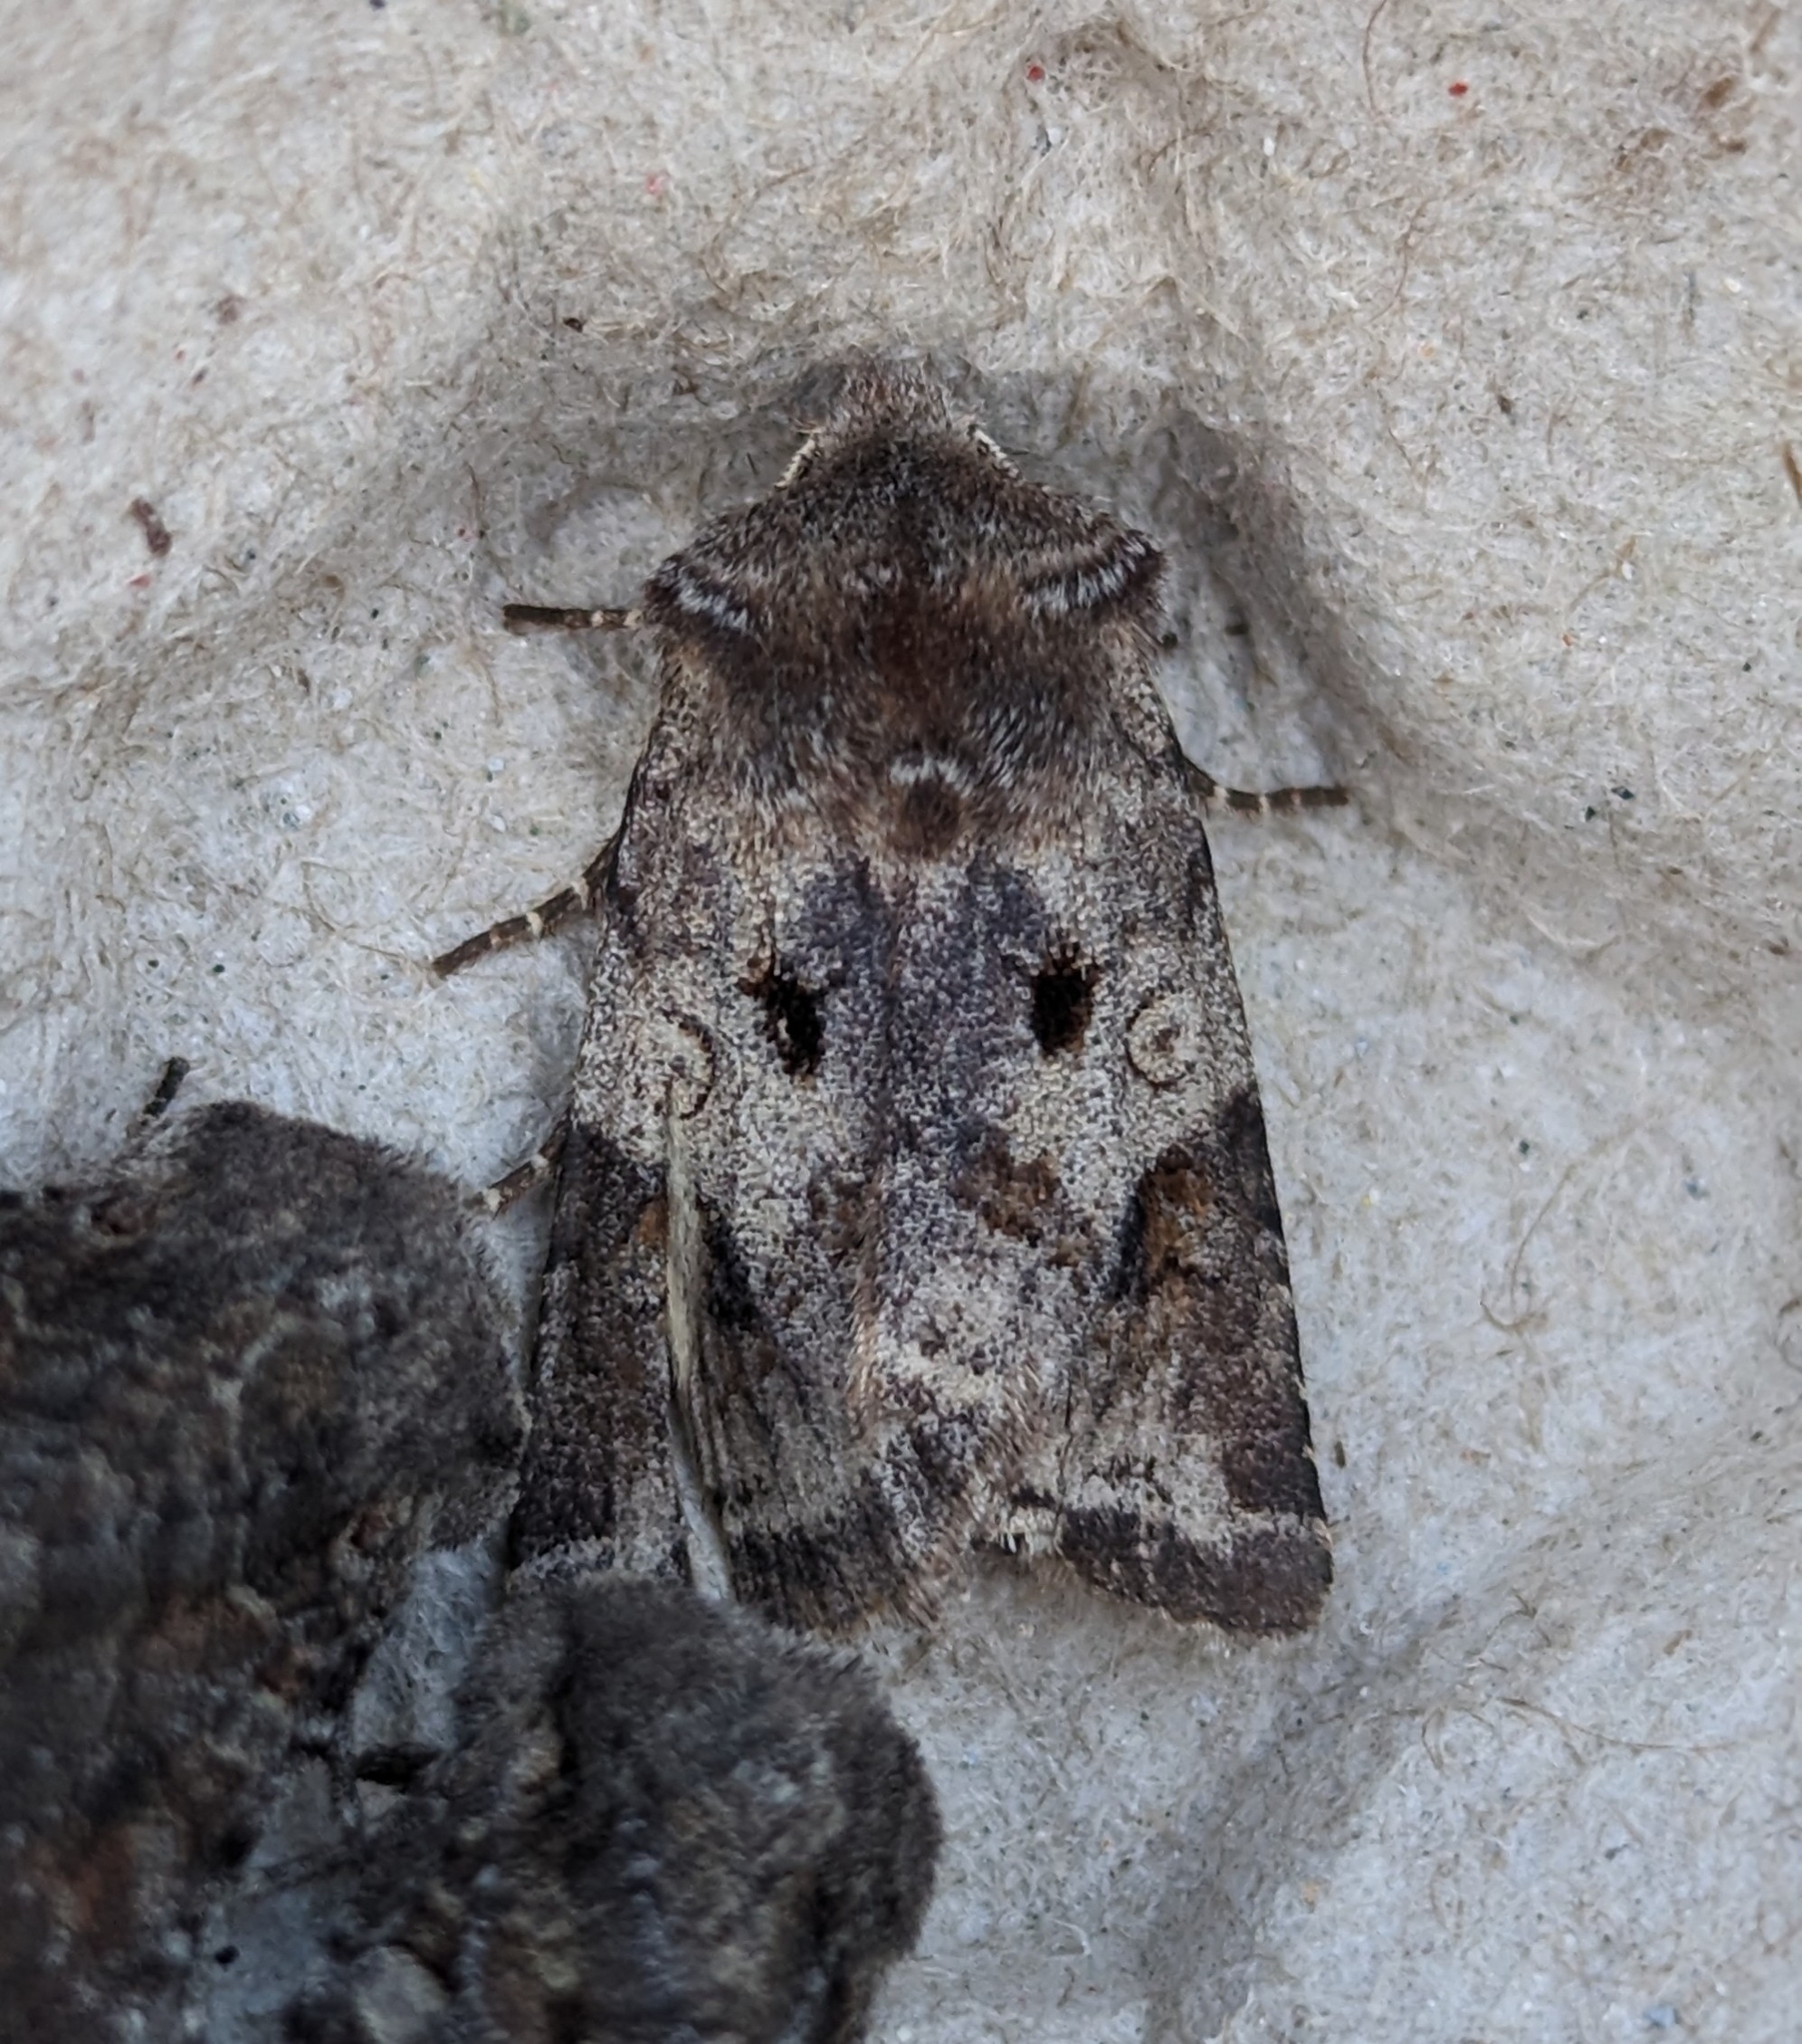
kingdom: Animalia
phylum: Arthropoda
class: Insecta
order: Lepidoptera
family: Noctuidae
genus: Cerastis
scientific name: Cerastis salicarum
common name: Willow dart
